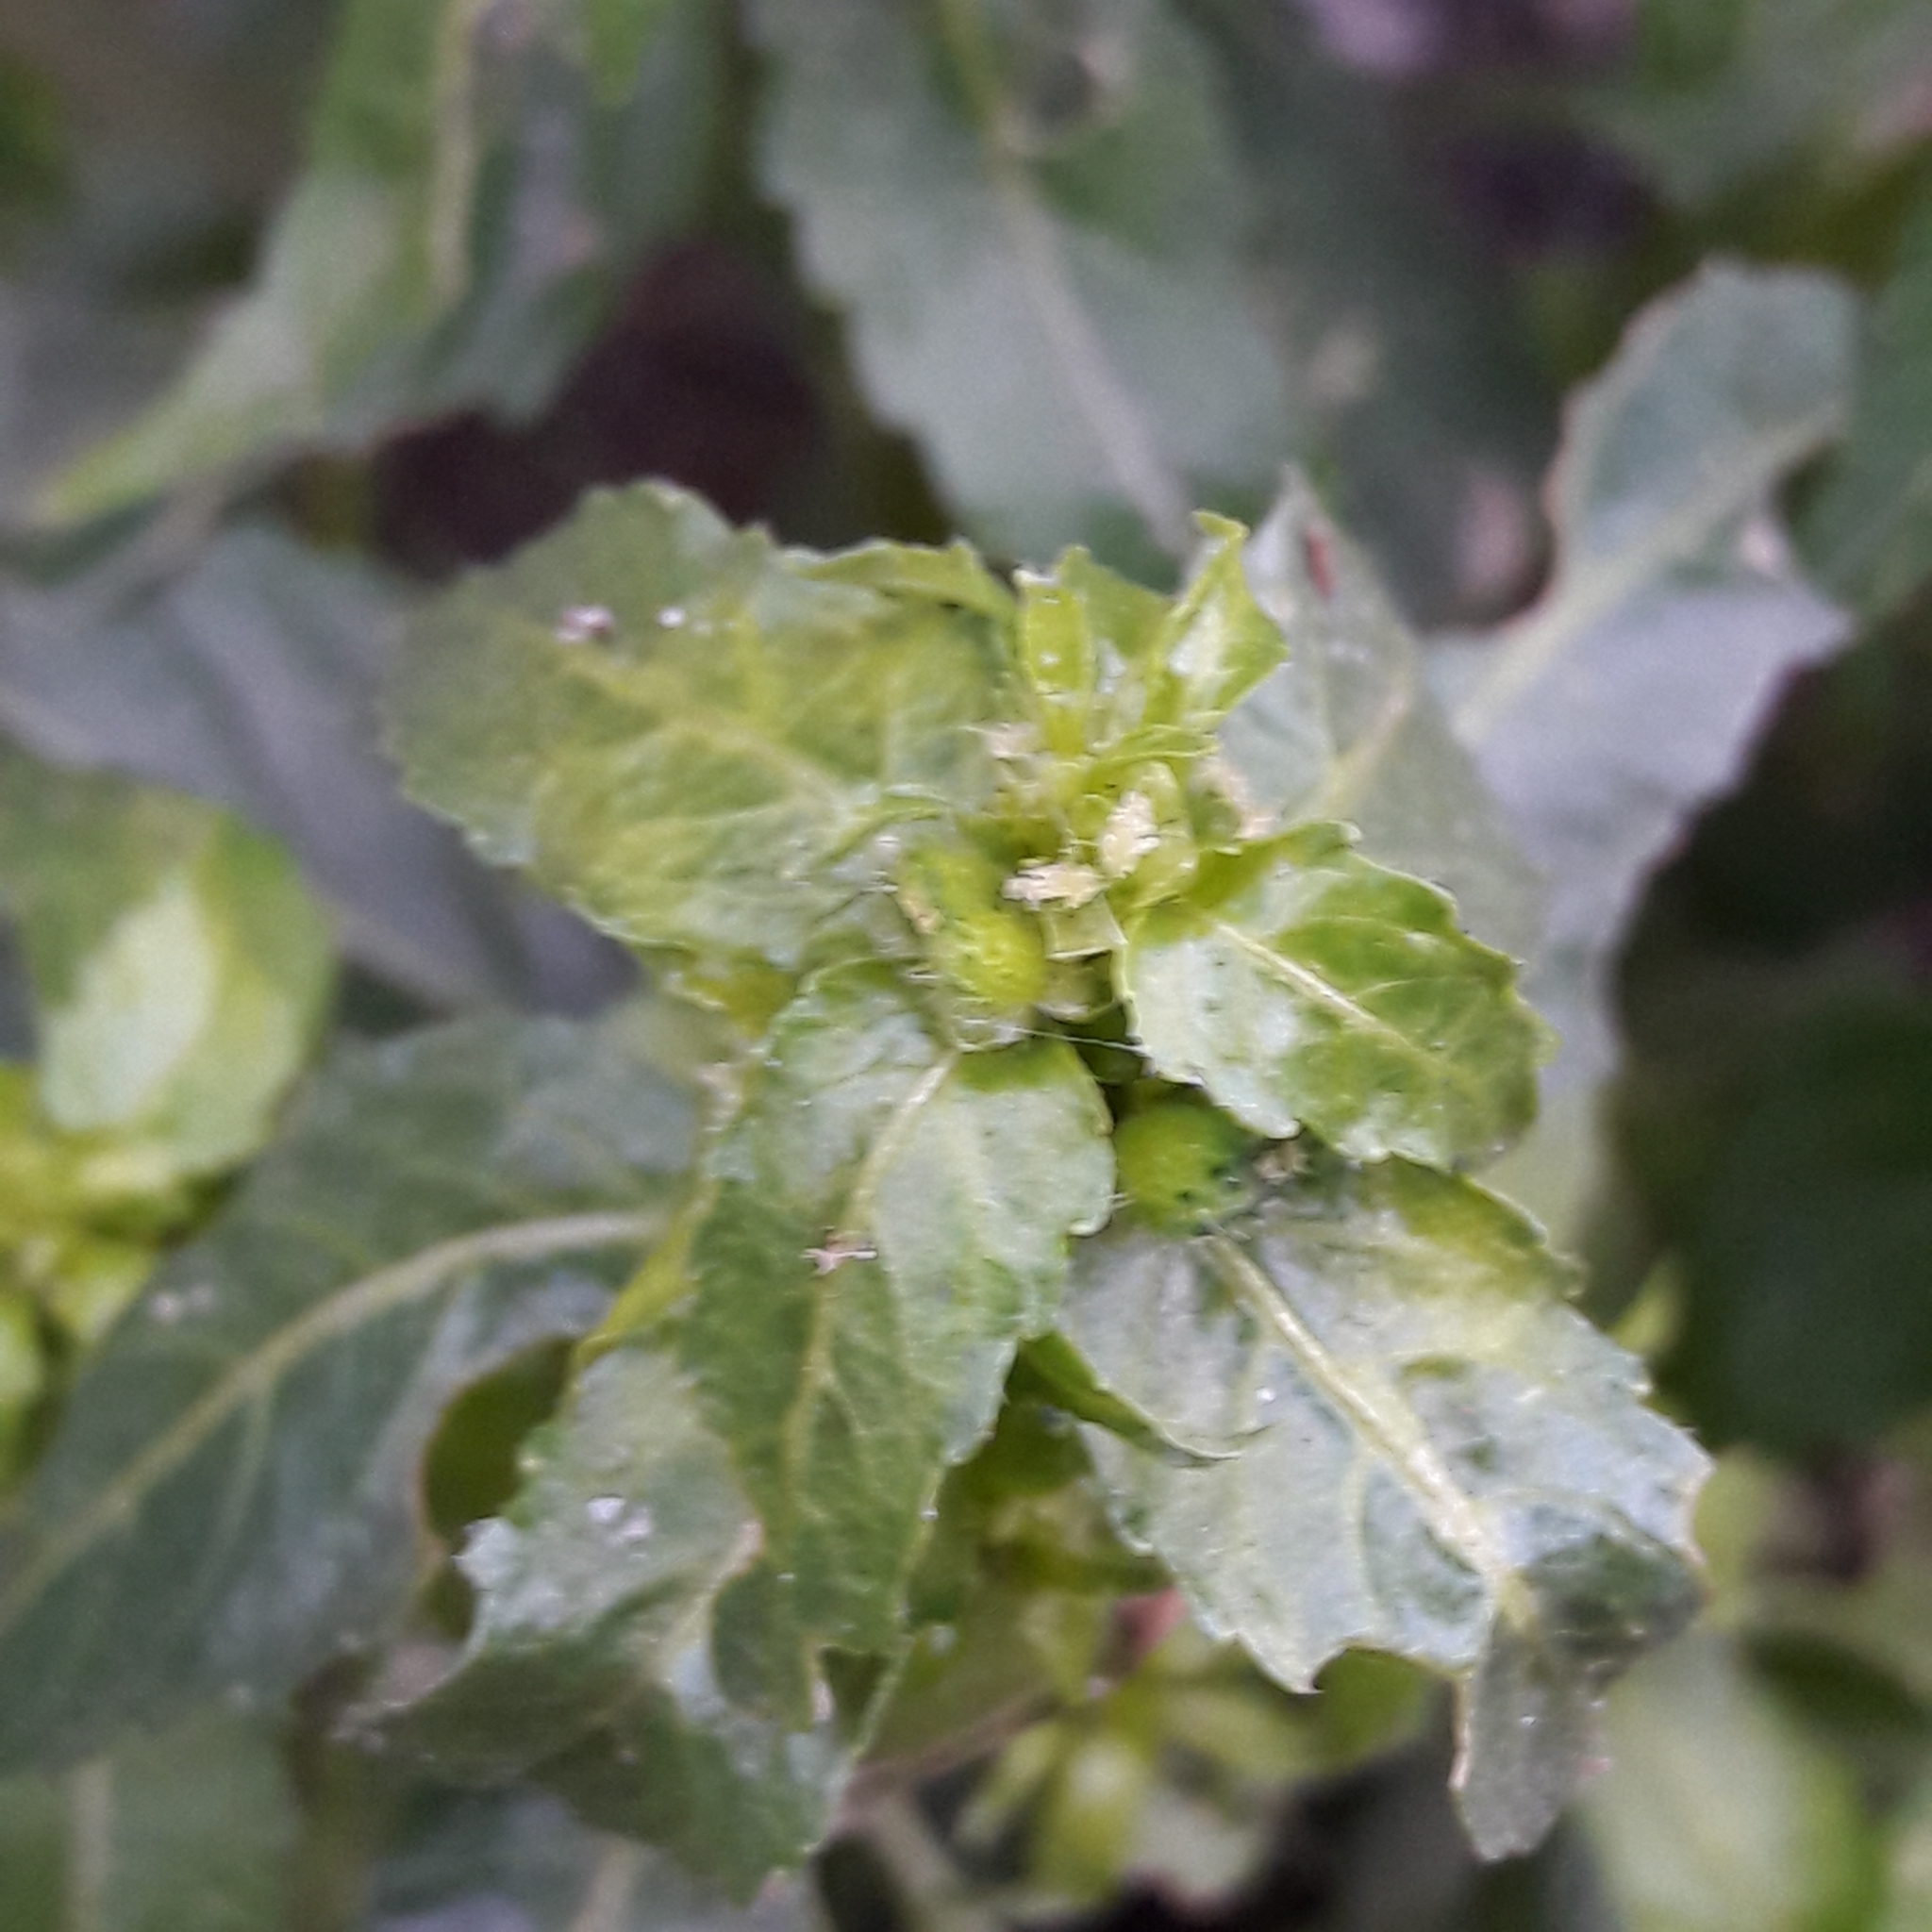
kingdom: Plantae
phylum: Tracheophyta
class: Magnoliopsida
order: Malpighiales
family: Euphorbiaceae
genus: Mercurialis
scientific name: Mercurialis annua
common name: Annual mercury
